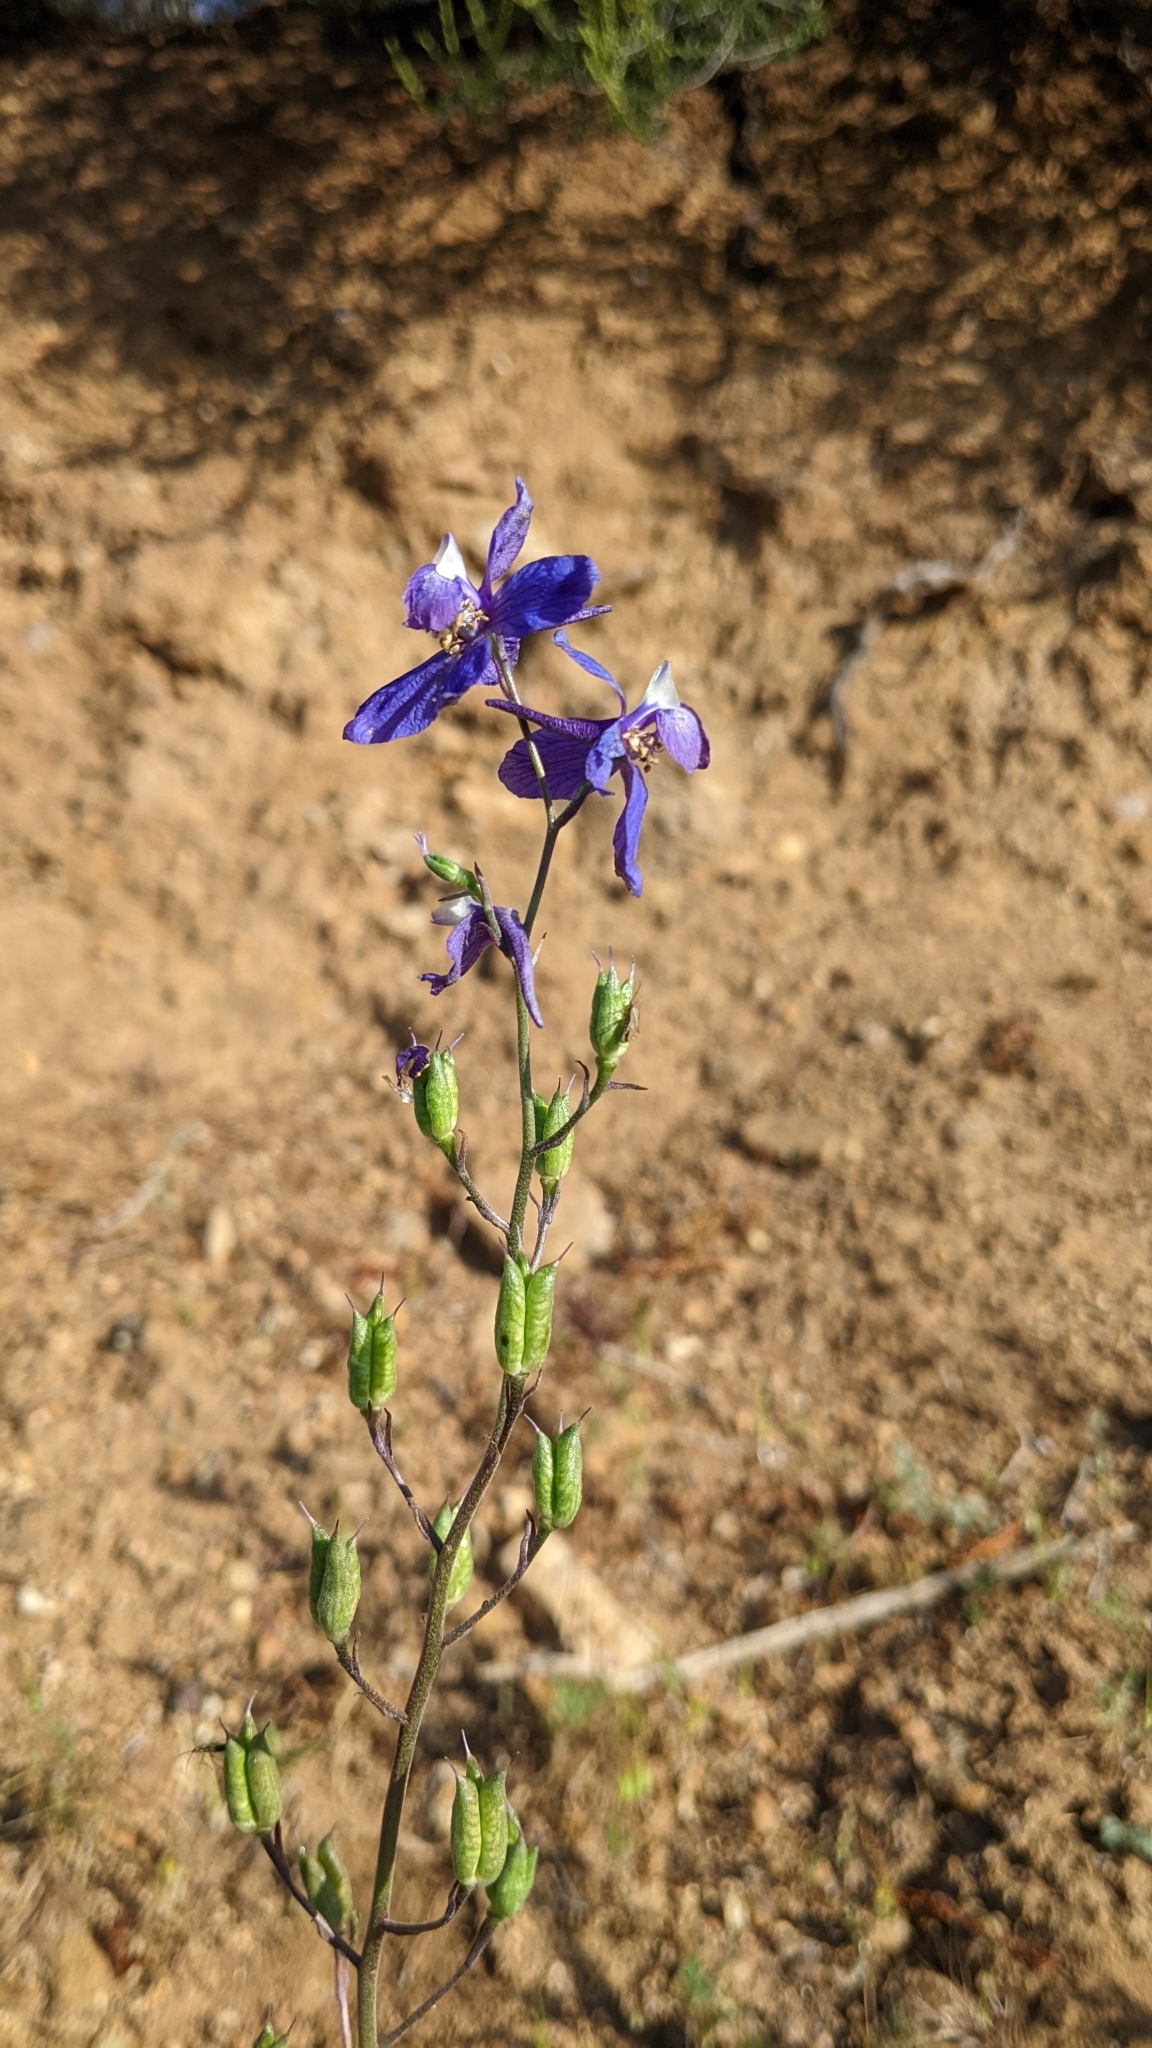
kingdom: Plantae
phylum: Tracheophyta
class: Magnoliopsida
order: Ranunculales
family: Ranunculaceae
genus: Delphinium
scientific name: Delphinium parryi
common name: Parry's larkspur
